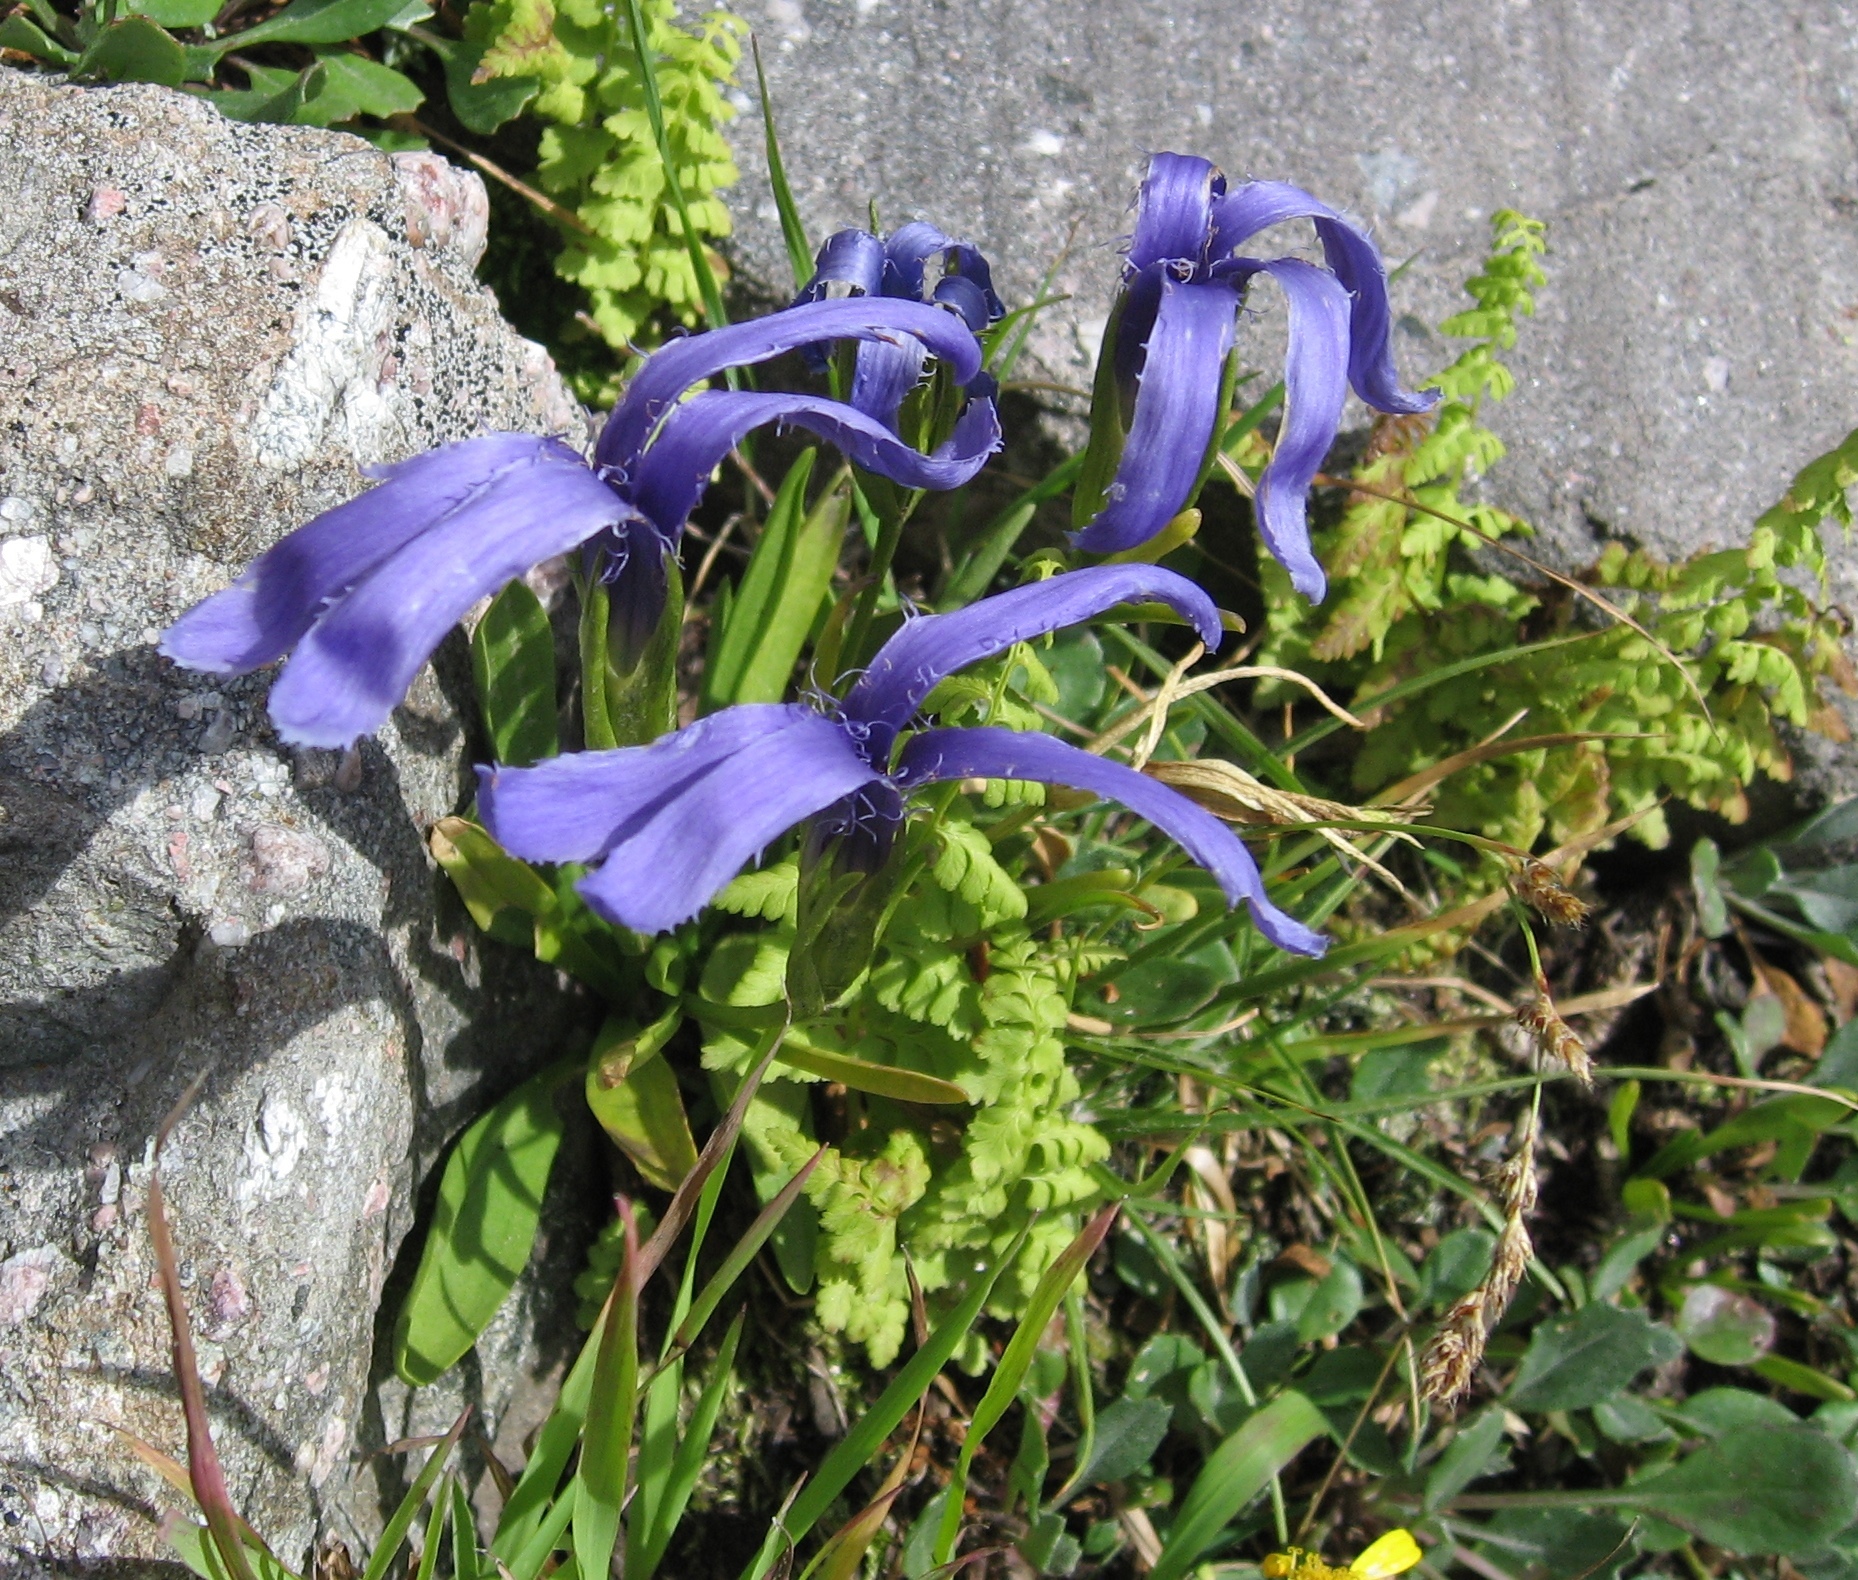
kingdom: Plantae
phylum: Tracheophyta
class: Magnoliopsida
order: Gentianales
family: Gentianaceae
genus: Gentianopsis
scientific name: Gentianopsis barbellata
